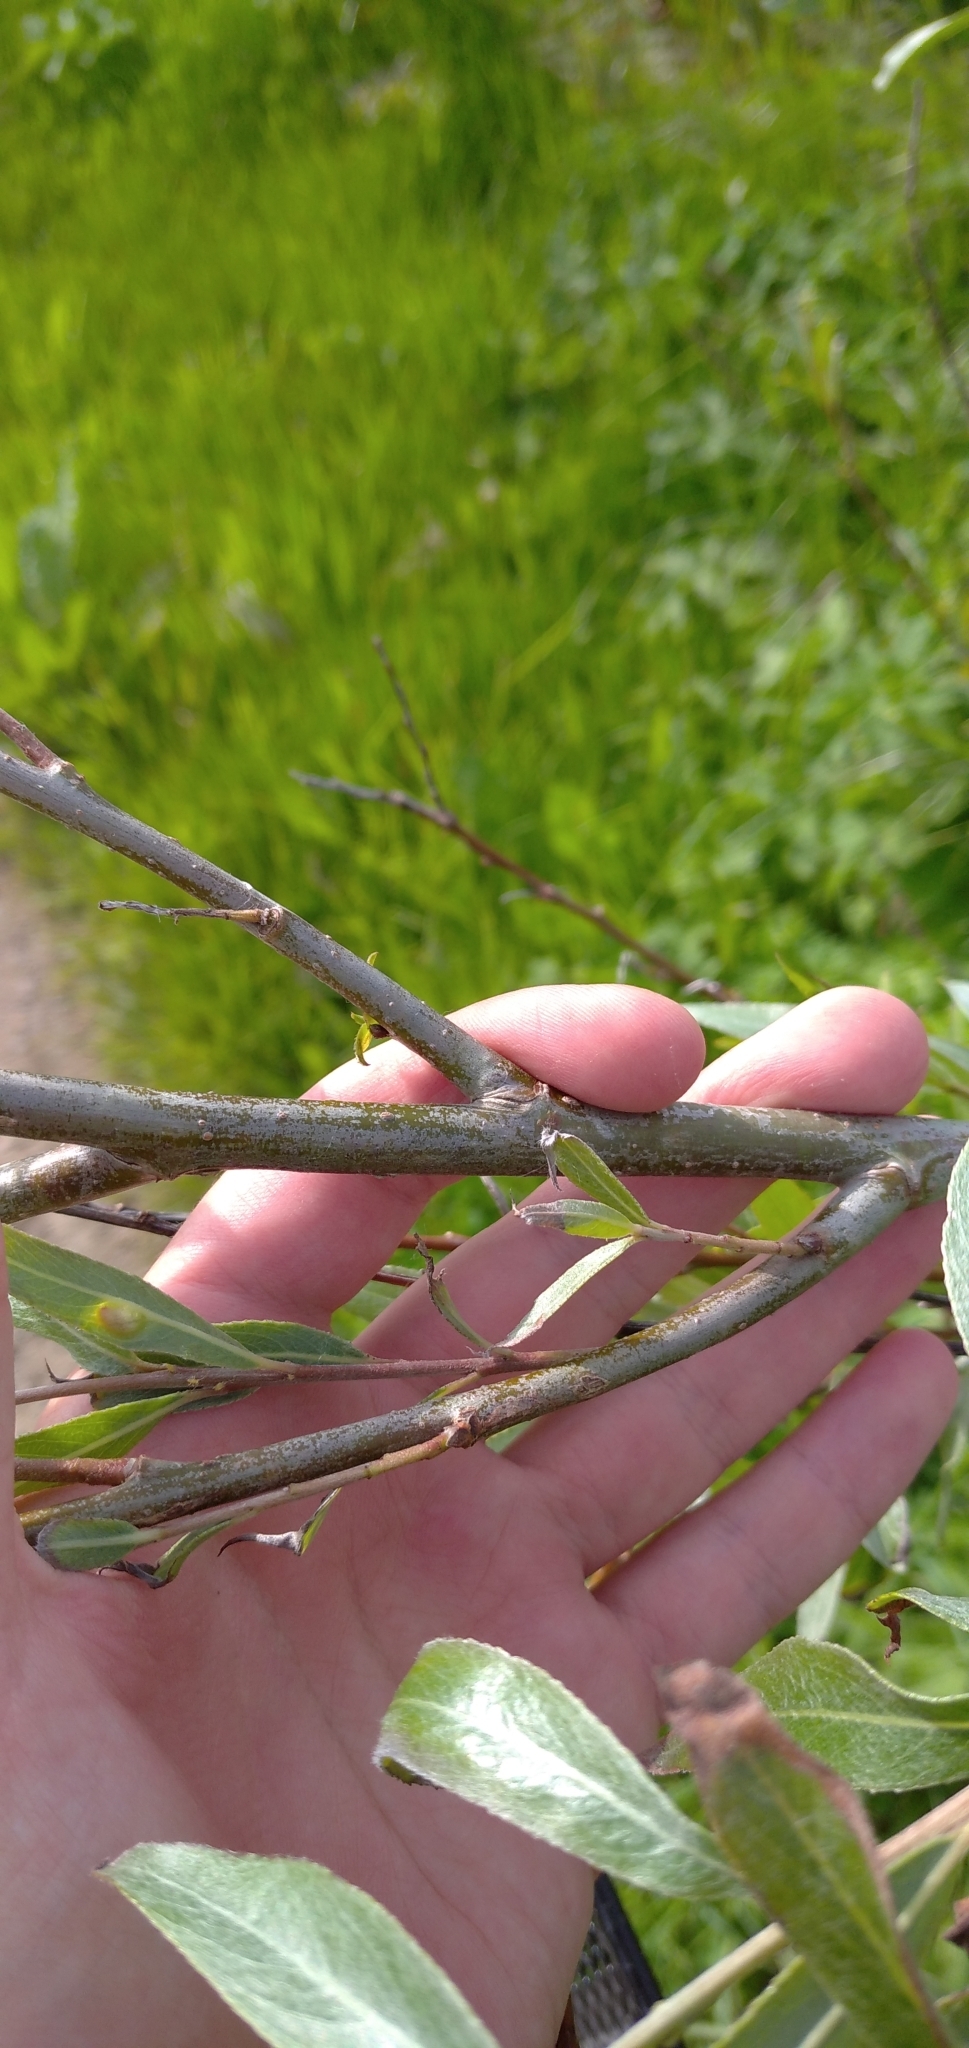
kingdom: Plantae
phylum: Tracheophyta
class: Magnoliopsida
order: Malpighiales
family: Salicaceae
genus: Salix
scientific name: Salix alba
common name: White willow
